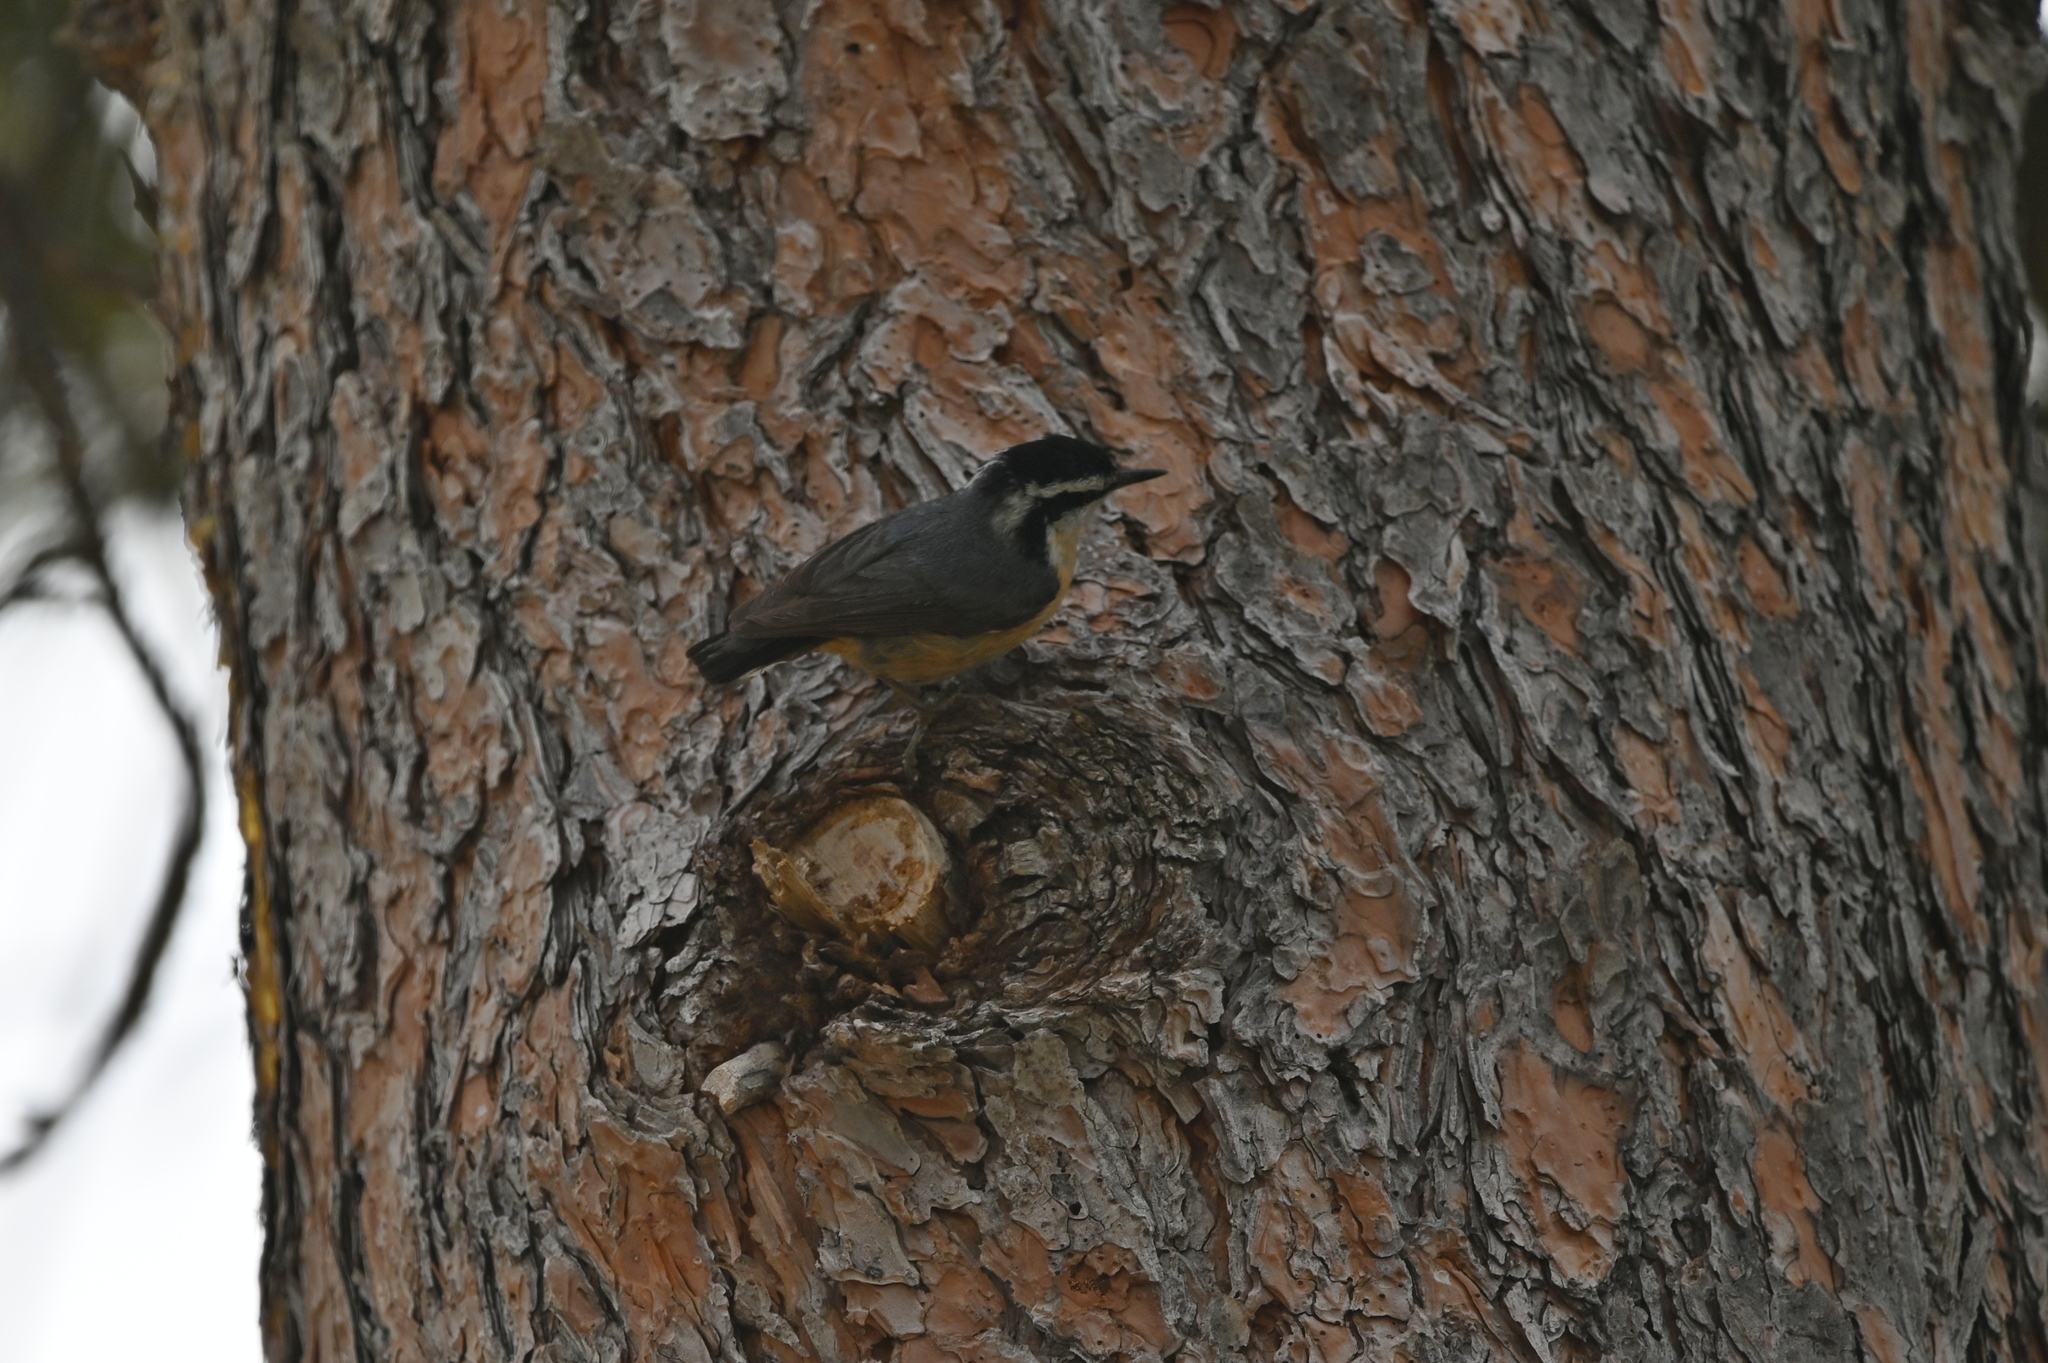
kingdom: Animalia
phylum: Chordata
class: Aves
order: Passeriformes
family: Sittidae
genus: Sitta
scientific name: Sitta canadensis
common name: Red-breasted nuthatch
